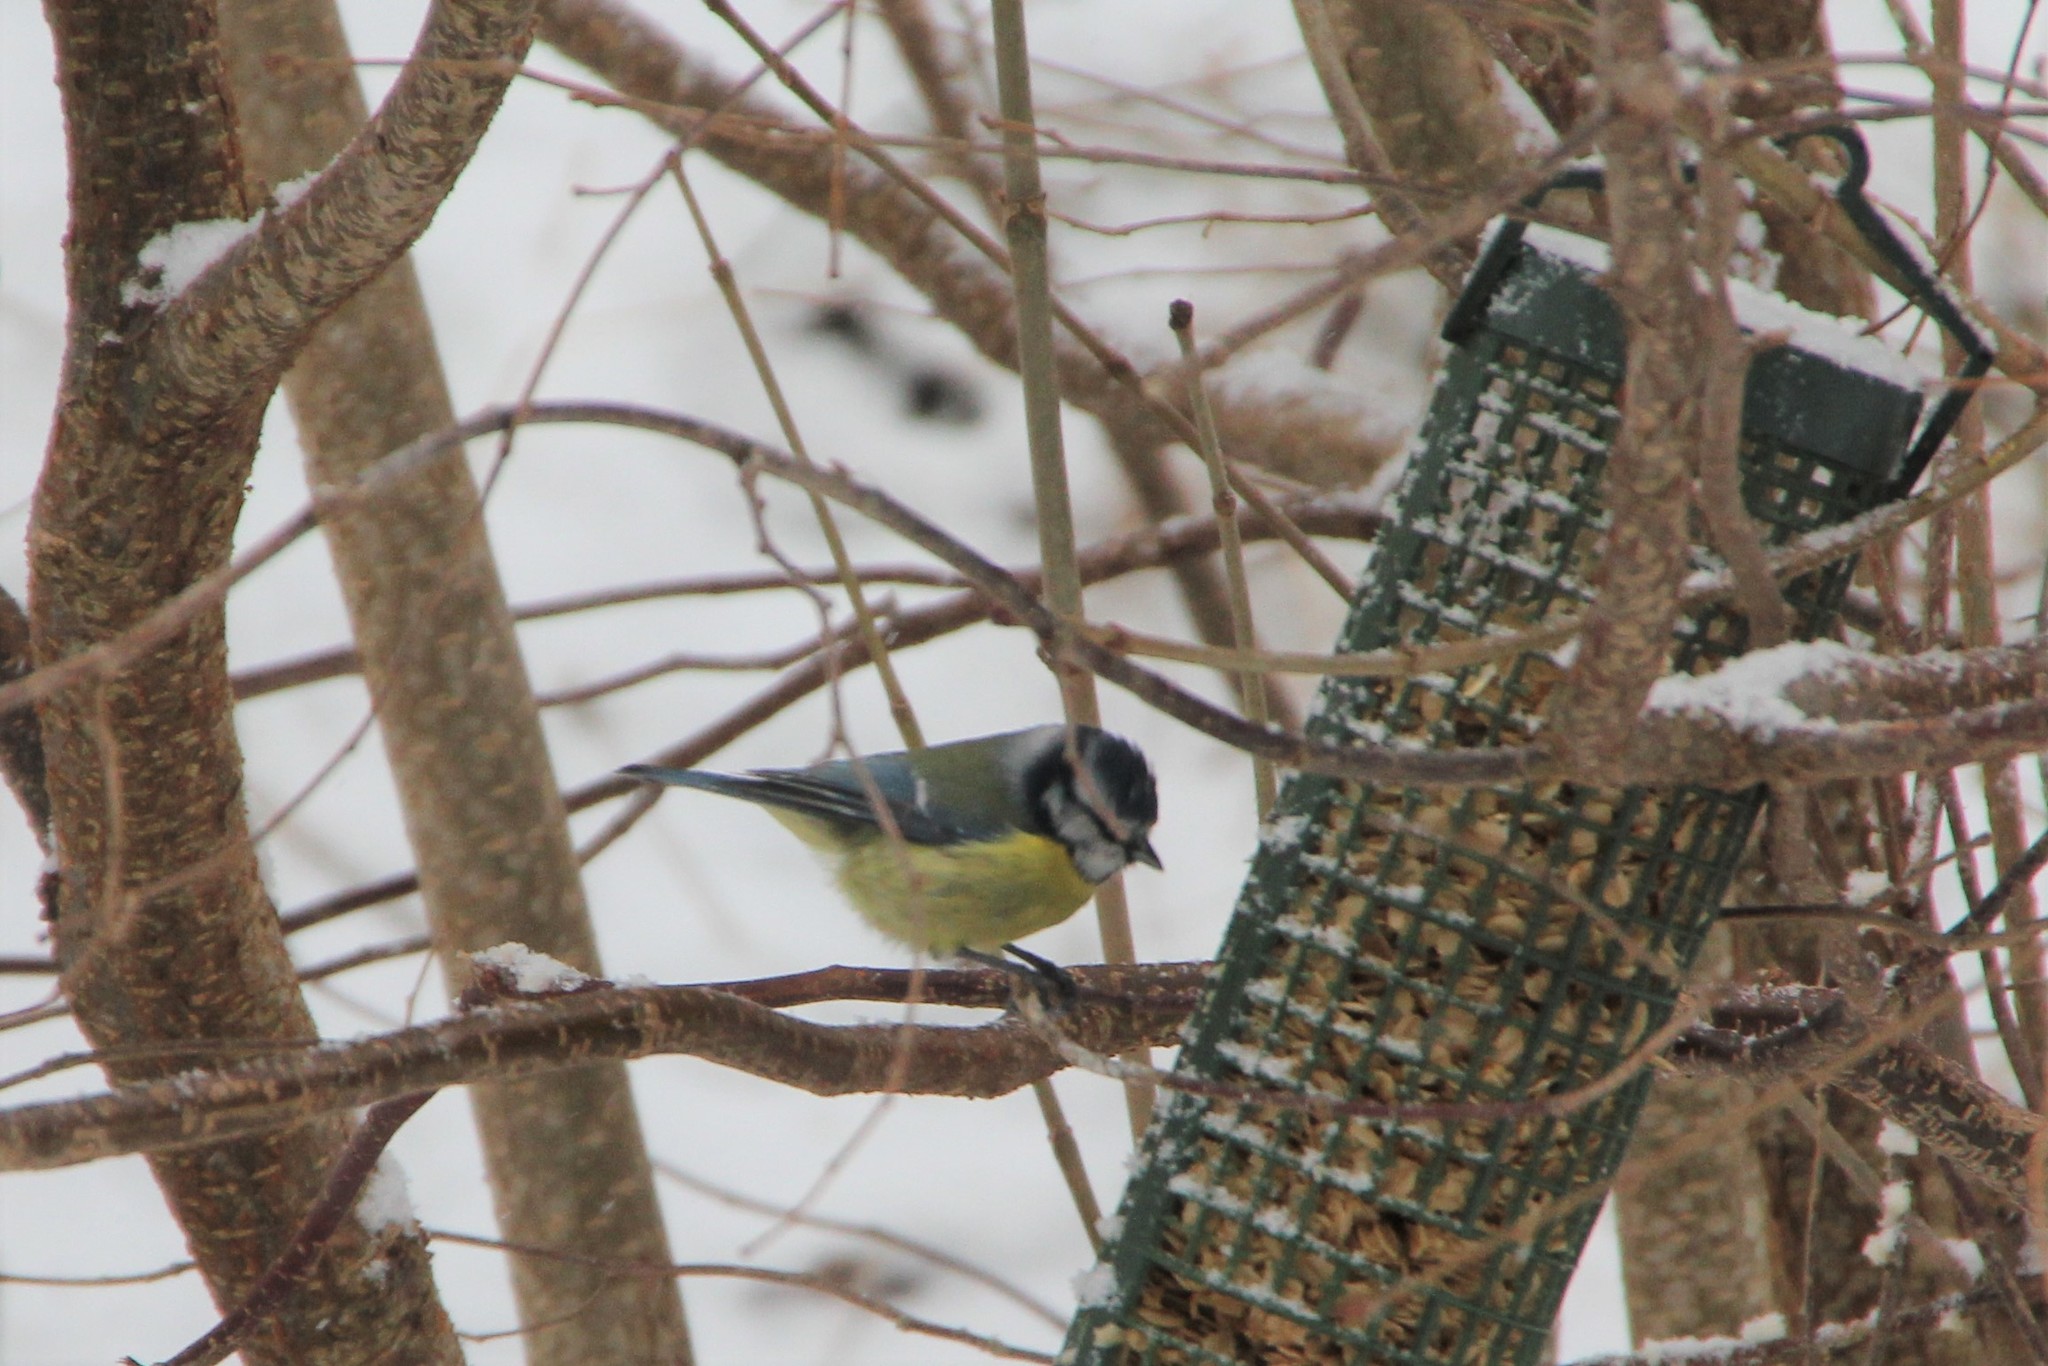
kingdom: Animalia
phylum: Chordata
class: Aves
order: Passeriformes
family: Paridae
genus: Cyanistes
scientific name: Cyanistes caeruleus
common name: Eurasian blue tit
